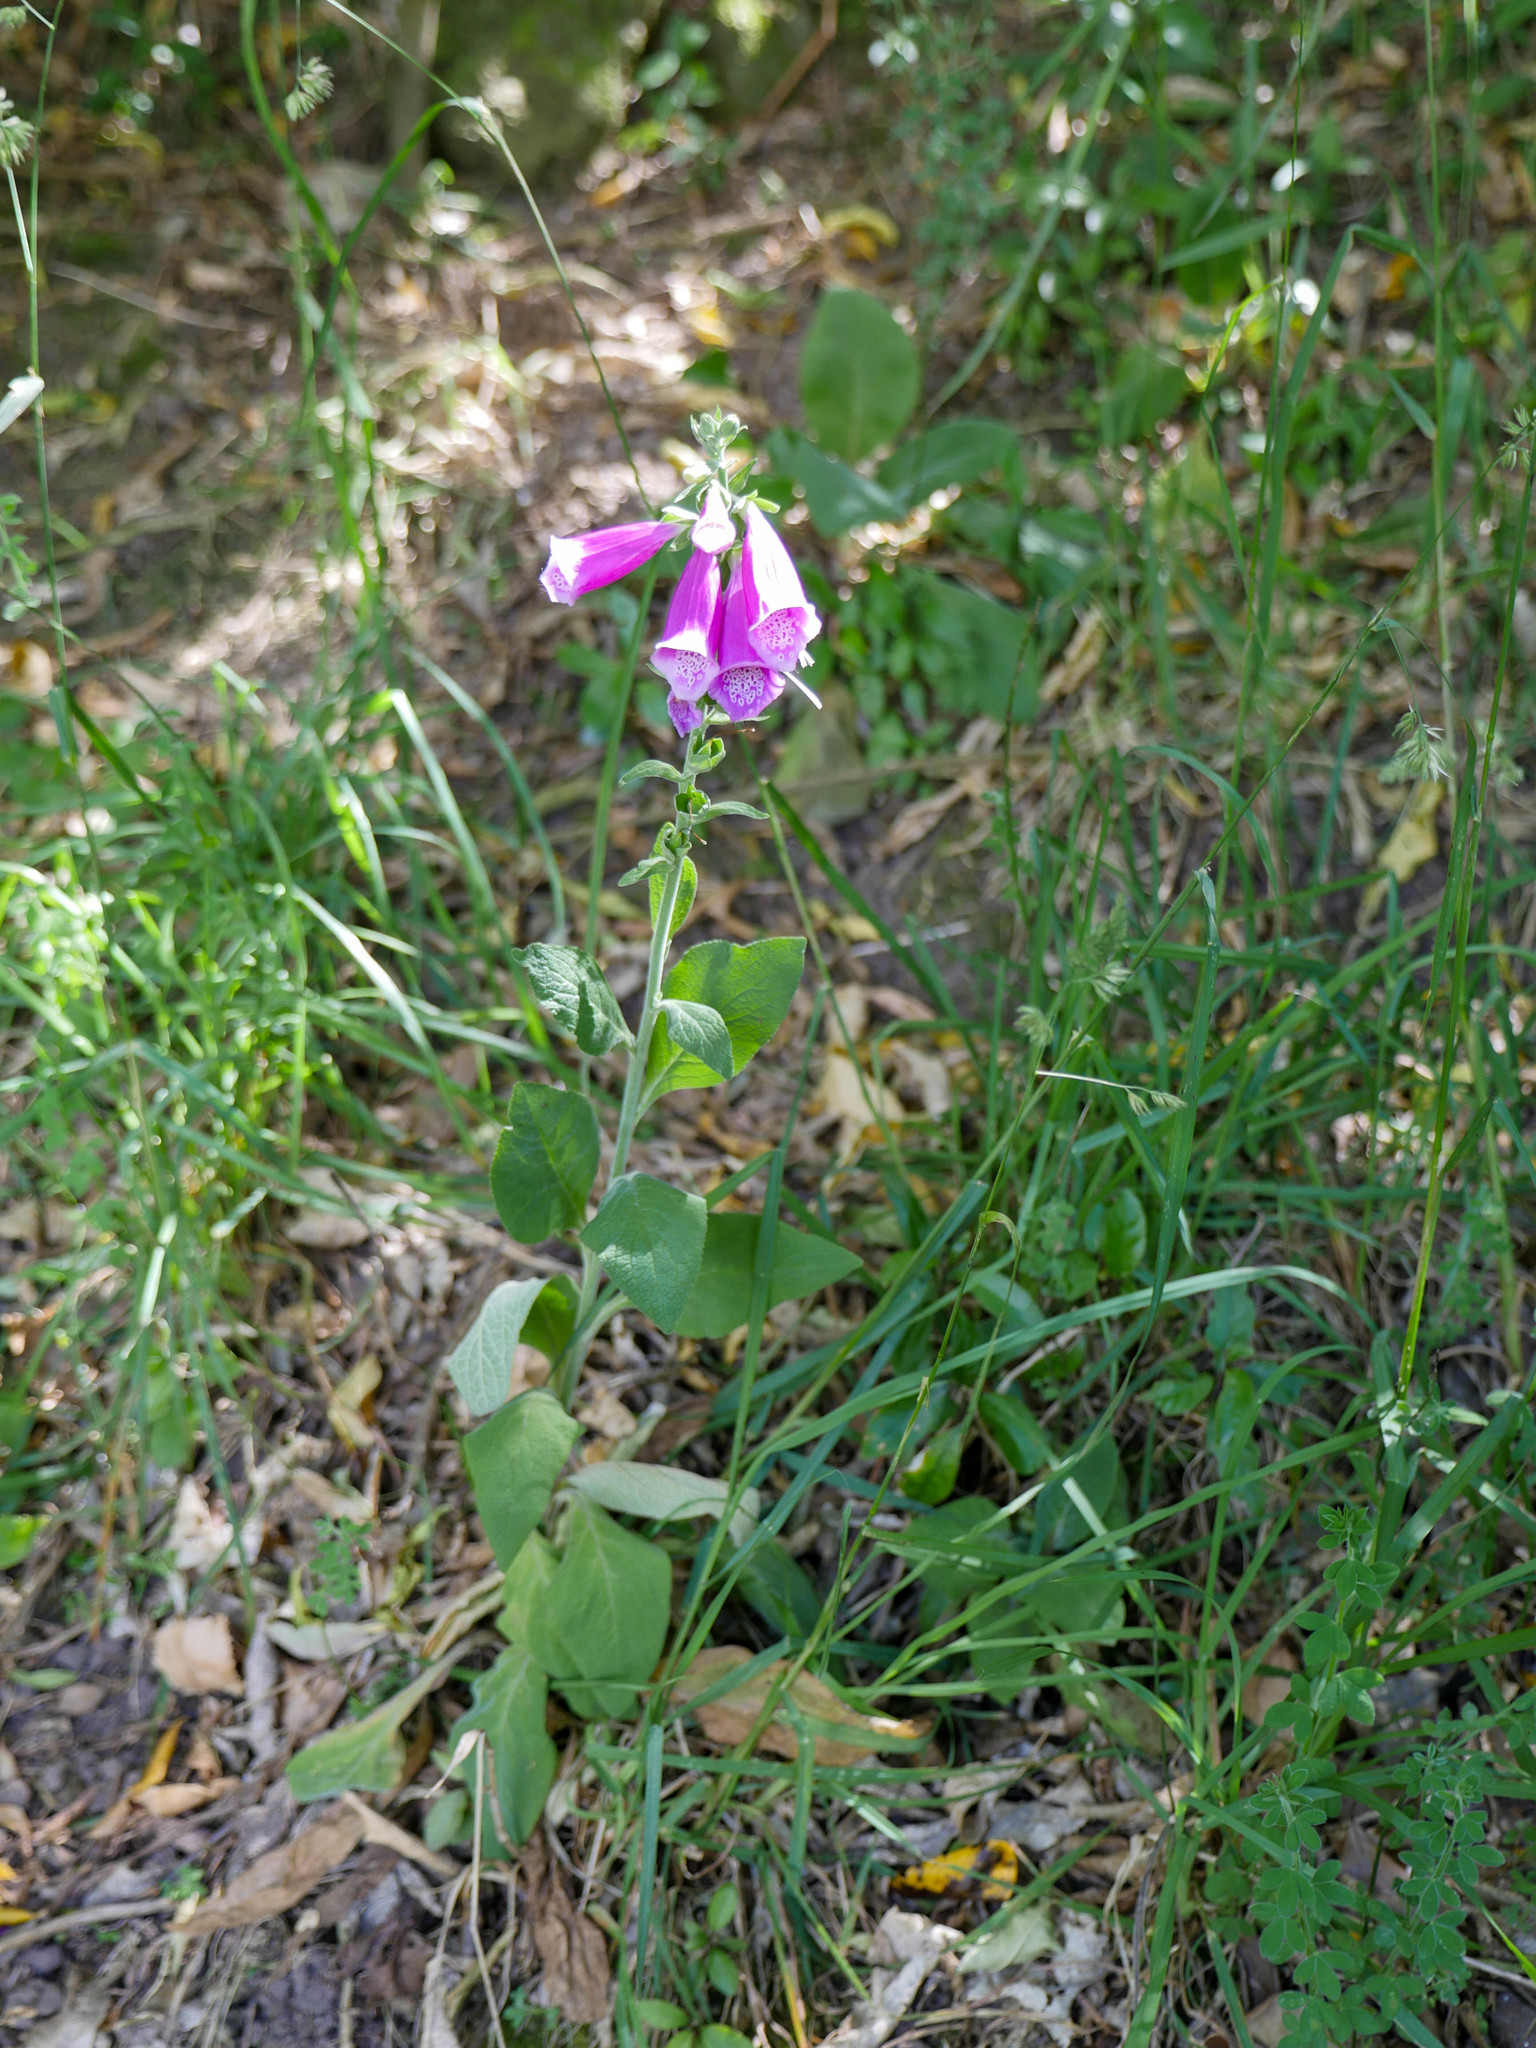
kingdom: Plantae
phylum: Tracheophyta
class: Magnoliopsida
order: Lamiales
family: Plantaginaceae
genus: Digitalis
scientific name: Digitalis purpurea
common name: Foxglove
